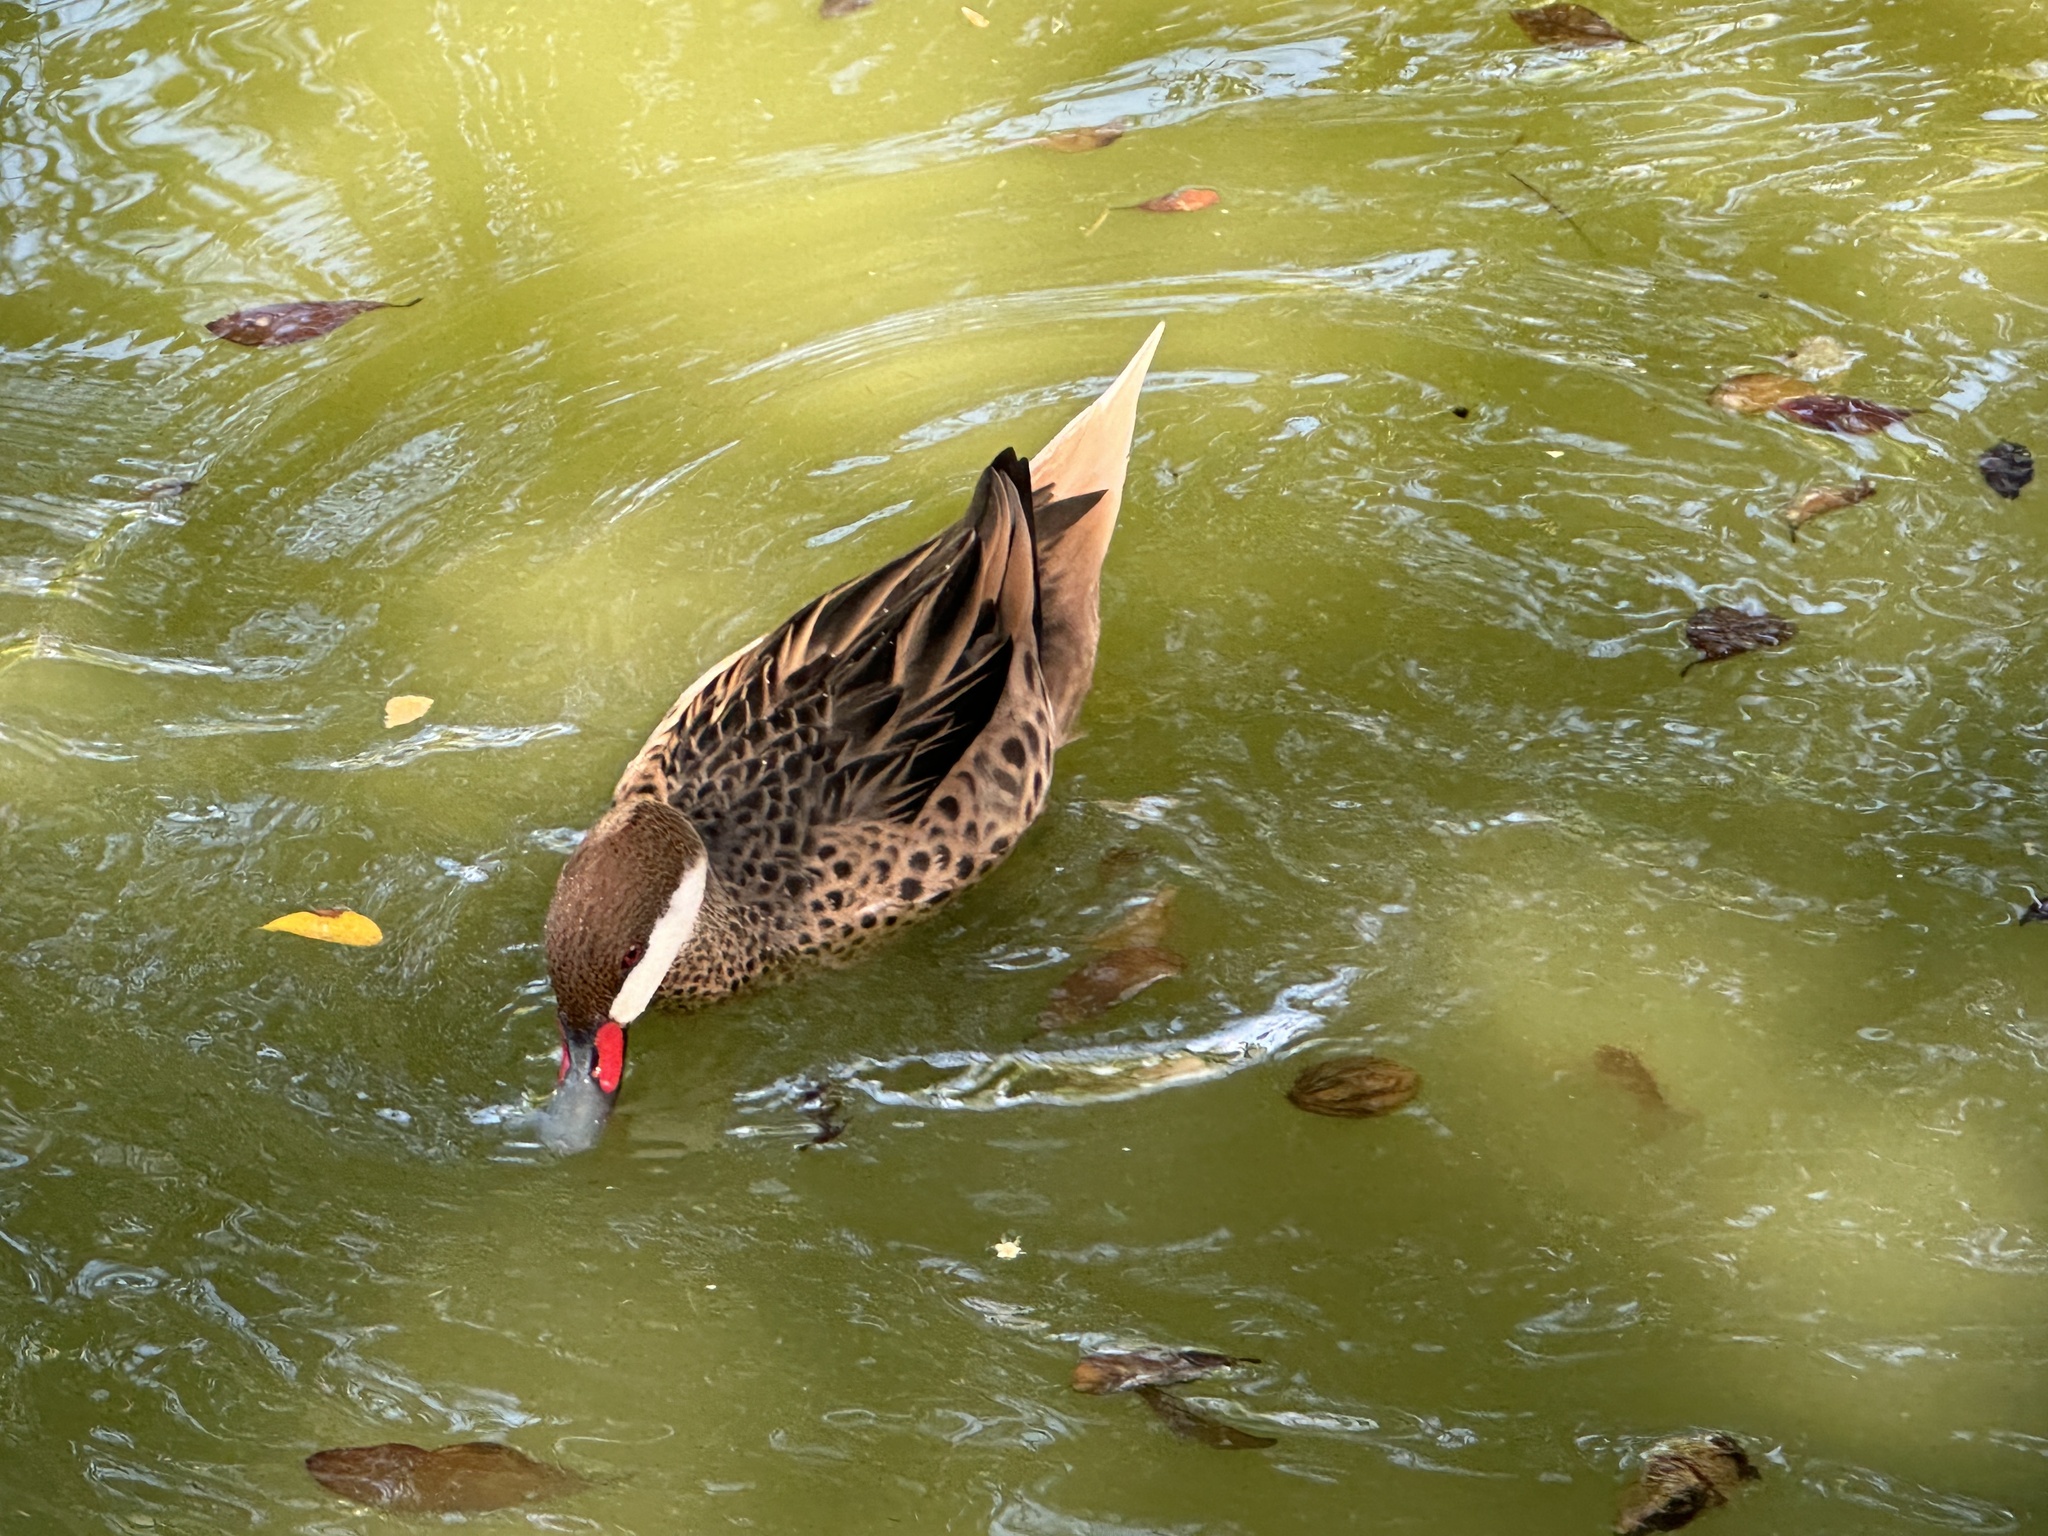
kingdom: Animalia
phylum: Chordata
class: Aves
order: Anseriformes
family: Anatidae
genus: Anas
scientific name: Anas bahamensis
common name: White-cheeked pintail
